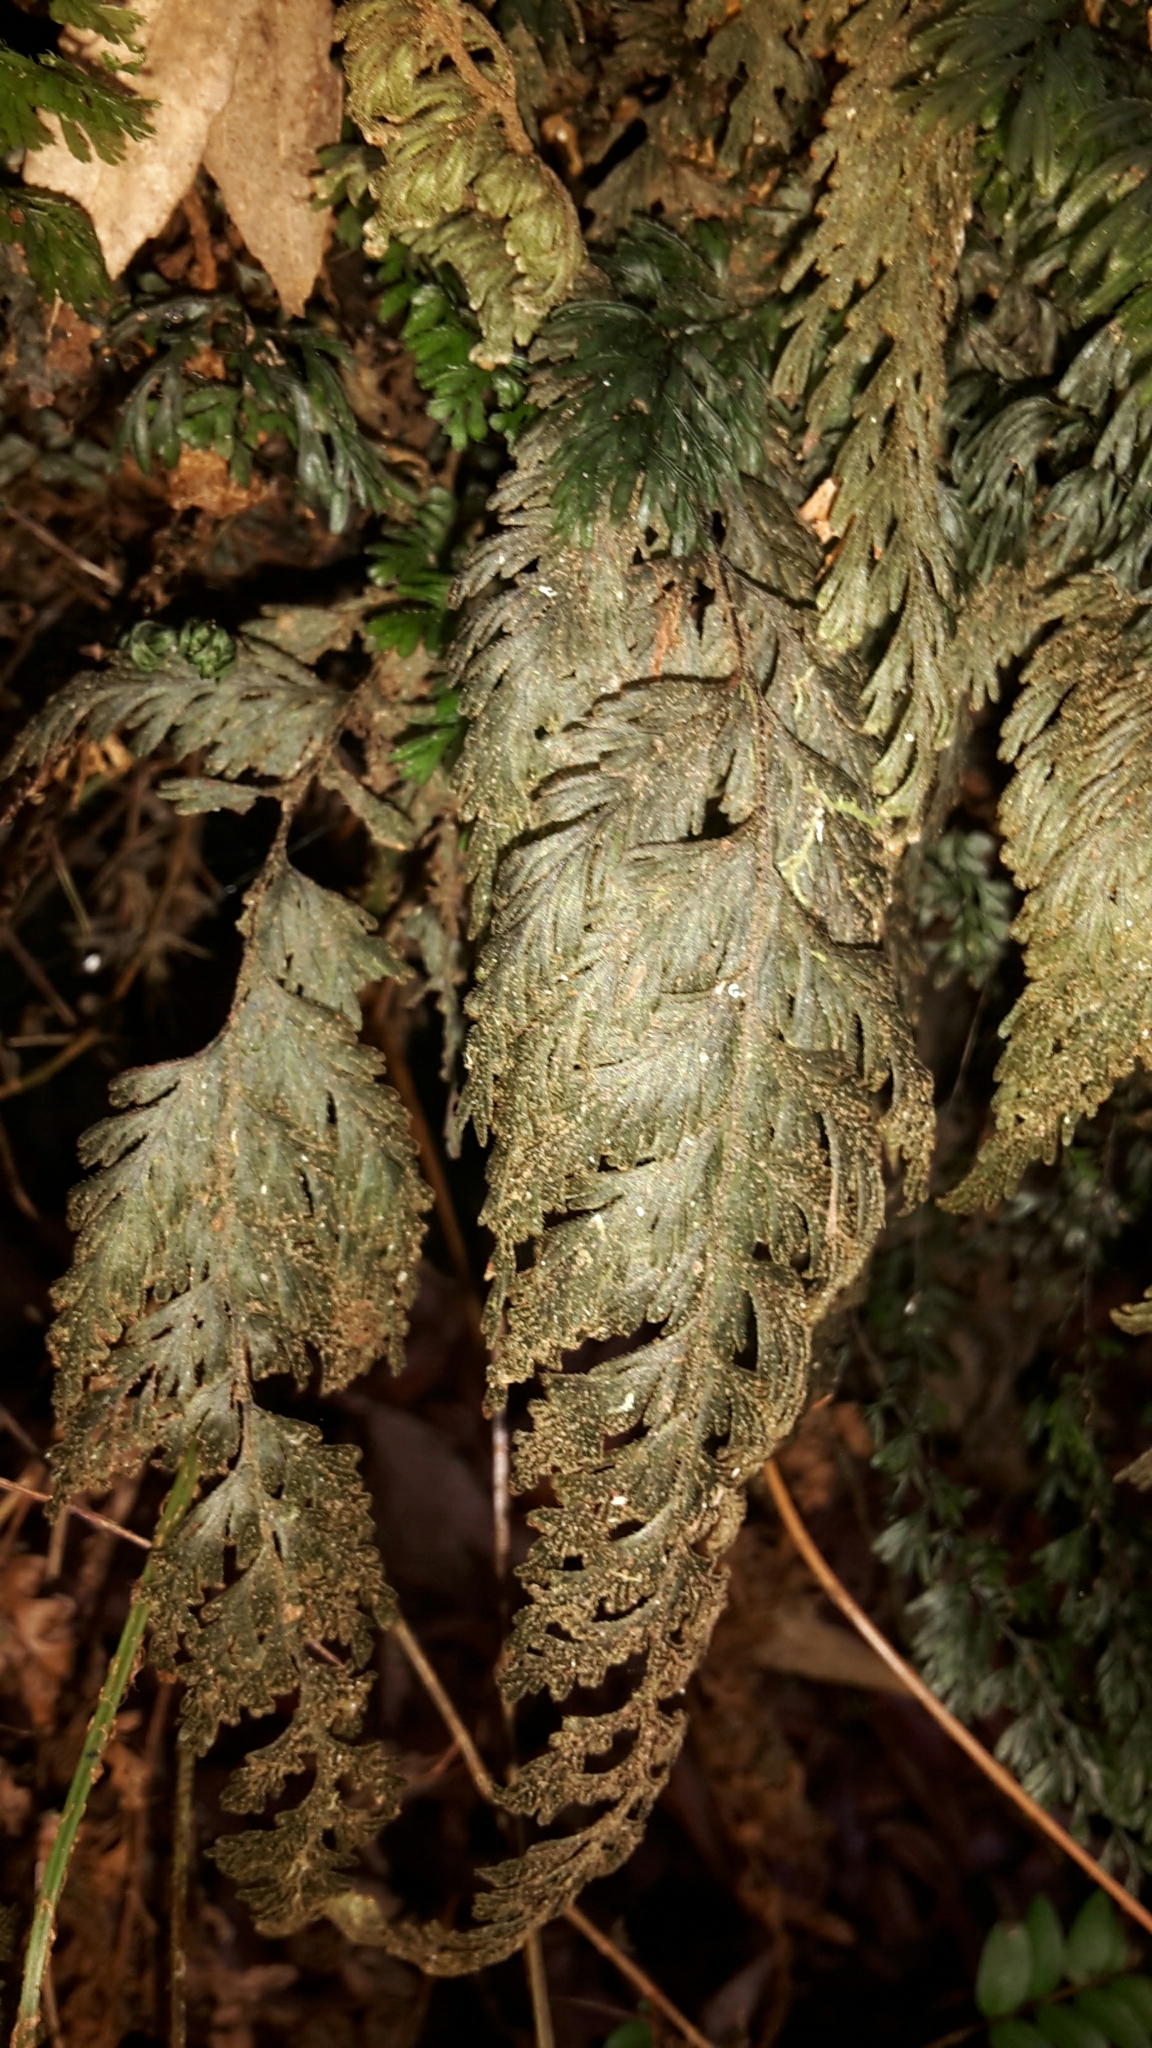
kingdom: Plantae
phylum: Tracheophyta
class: Polypodiopsida
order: Hymenophyllales
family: Hymenophyllaceae
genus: Hymenophyllum
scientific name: Hymenophyllum frankliniae
